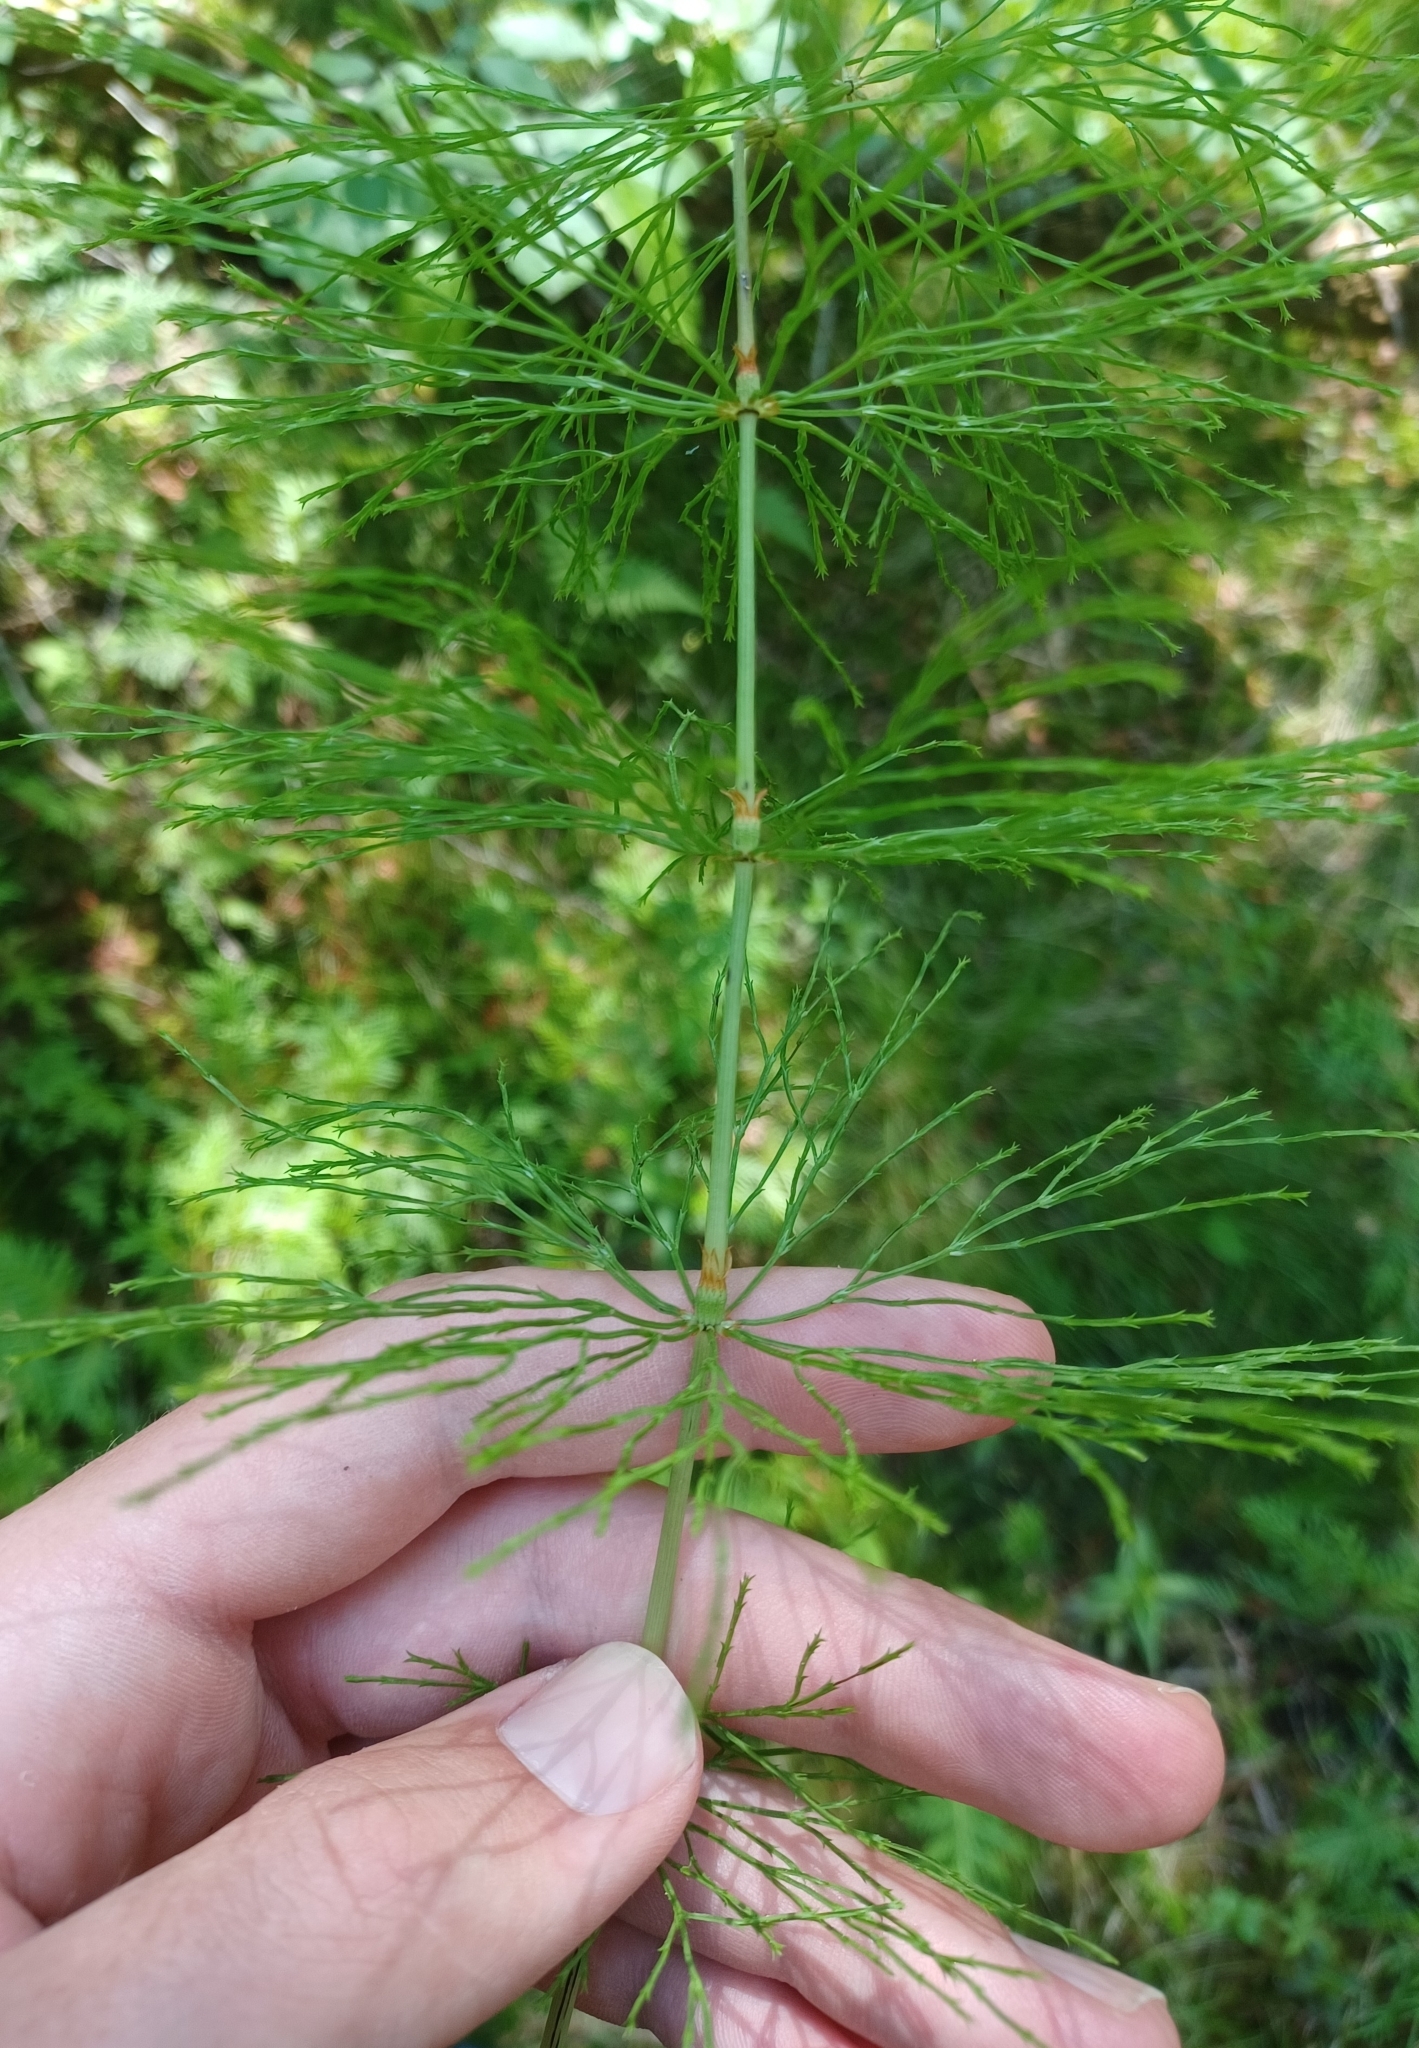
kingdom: Plantae
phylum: Tracheophyta
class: Polypodiopsida
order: Equisetales
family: Equisetaceae
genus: Equisetum
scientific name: Equisetum sylvaticum
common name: Wood horsetail
